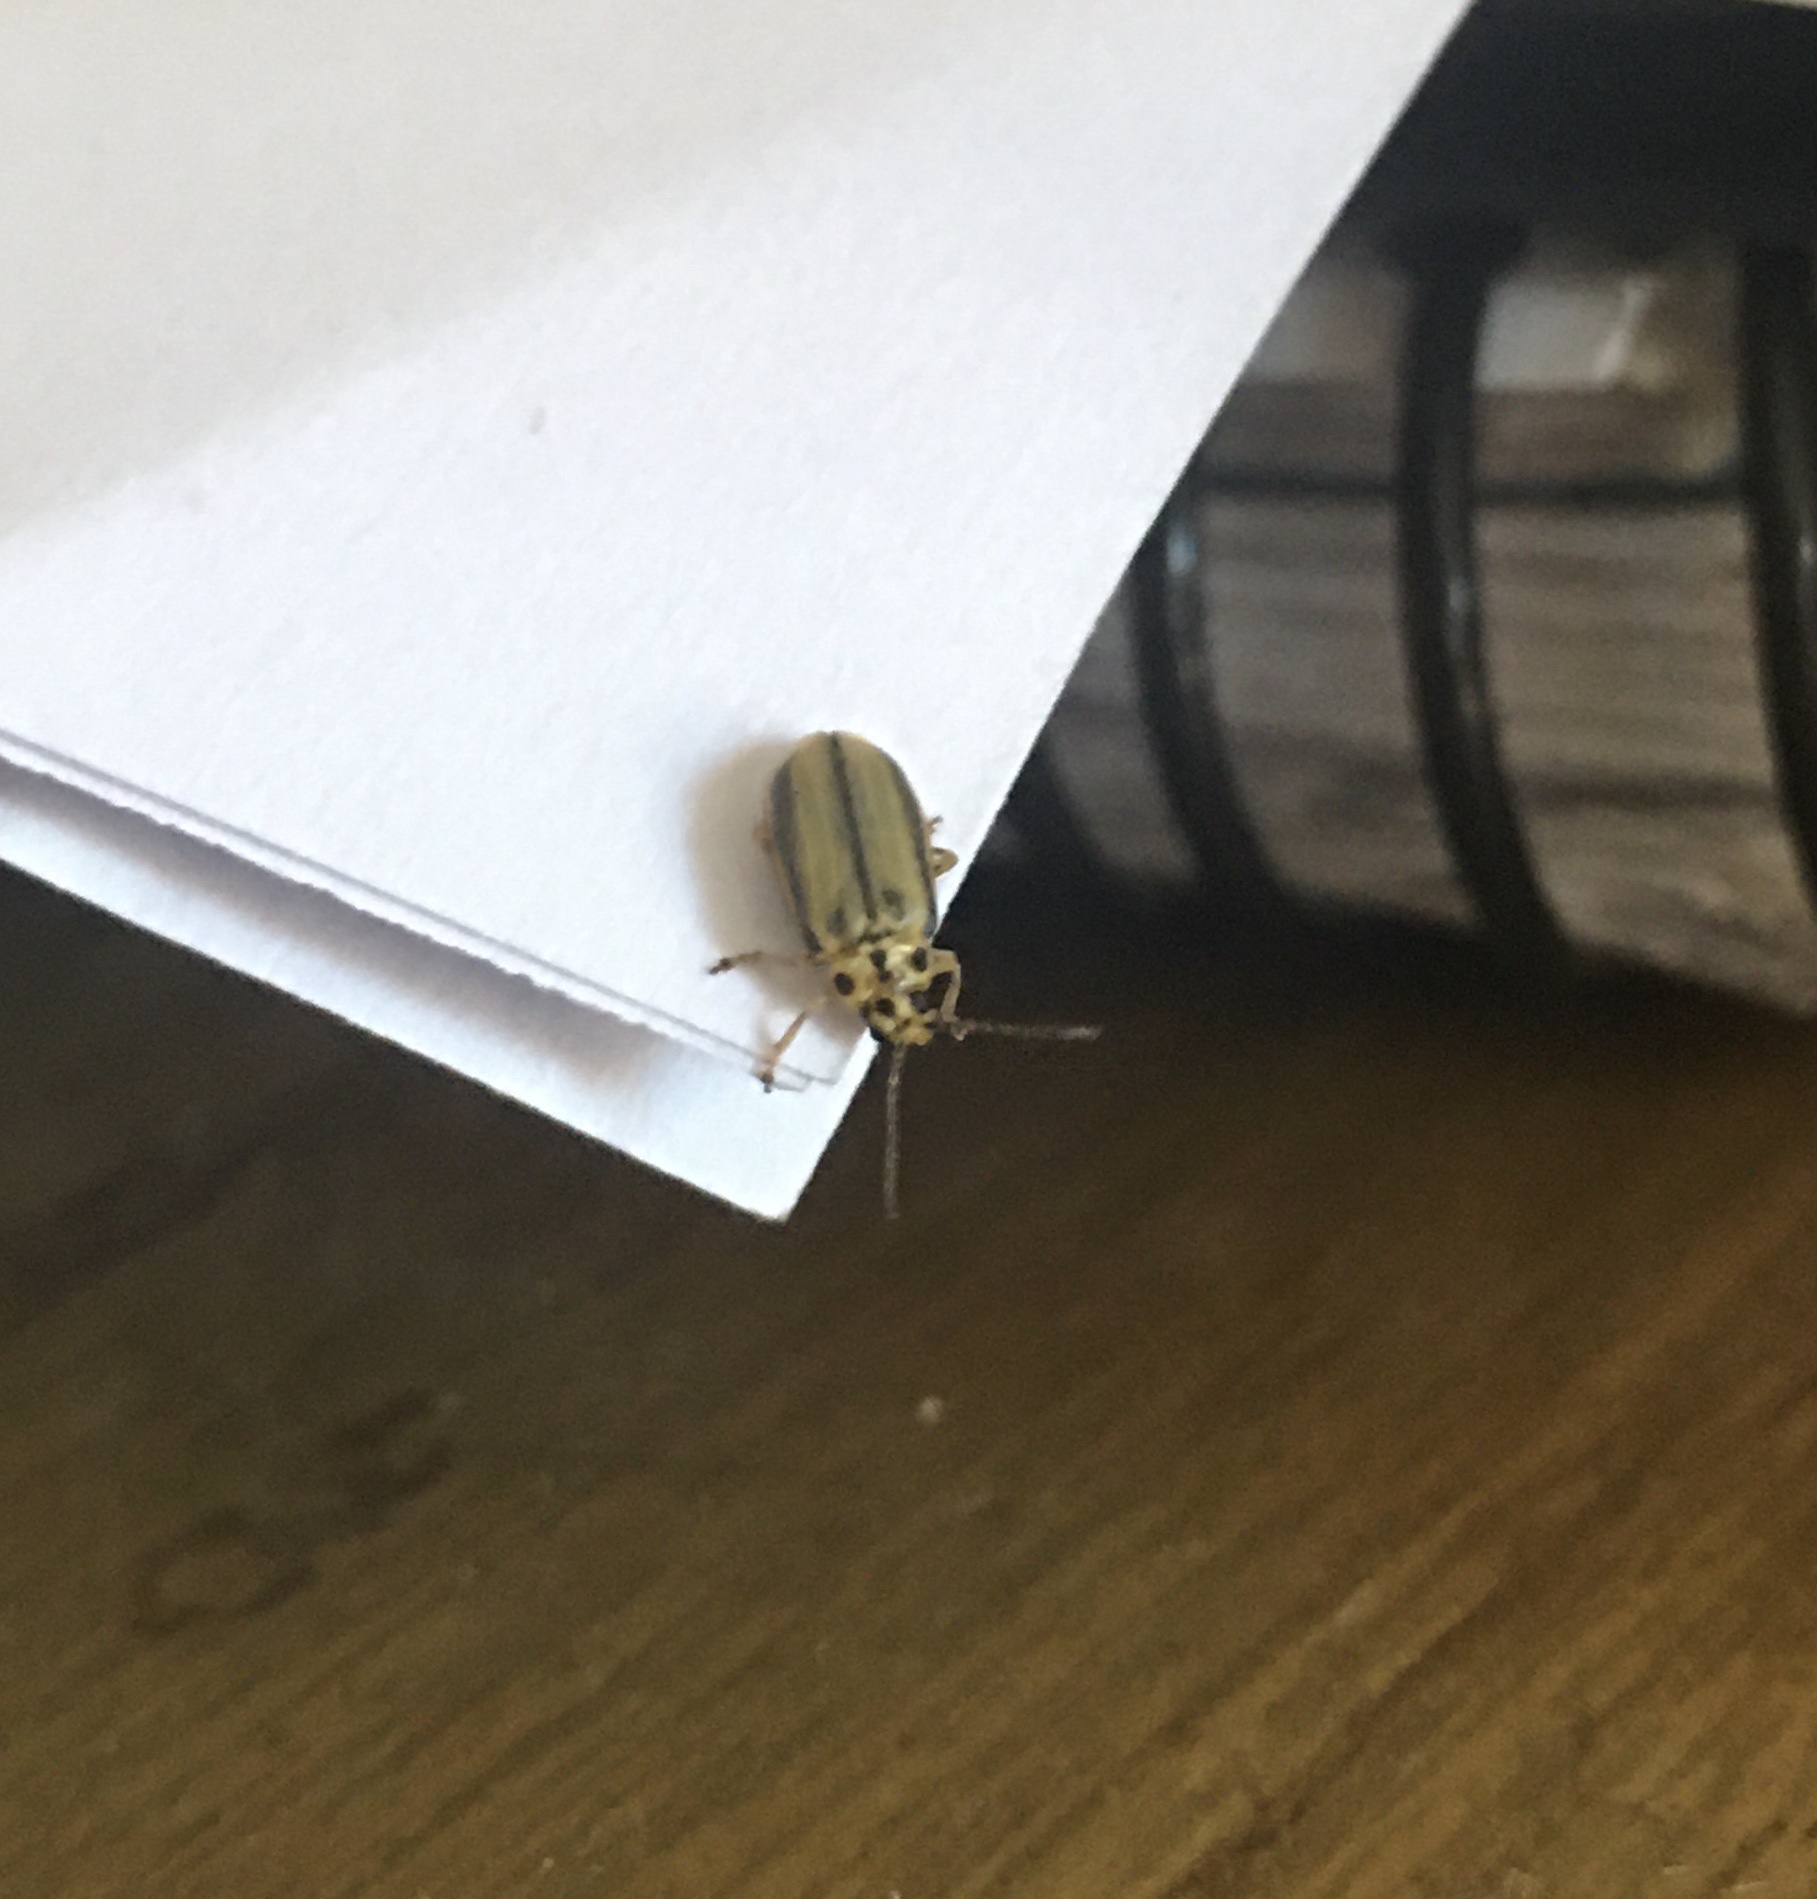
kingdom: Animalia
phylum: Arthropoda
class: Insecta
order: Coleoptera
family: Chrysomelidae
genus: Xanthogaleruca
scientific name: Xanthogaleruca luteola
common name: Elm leaf beetle
